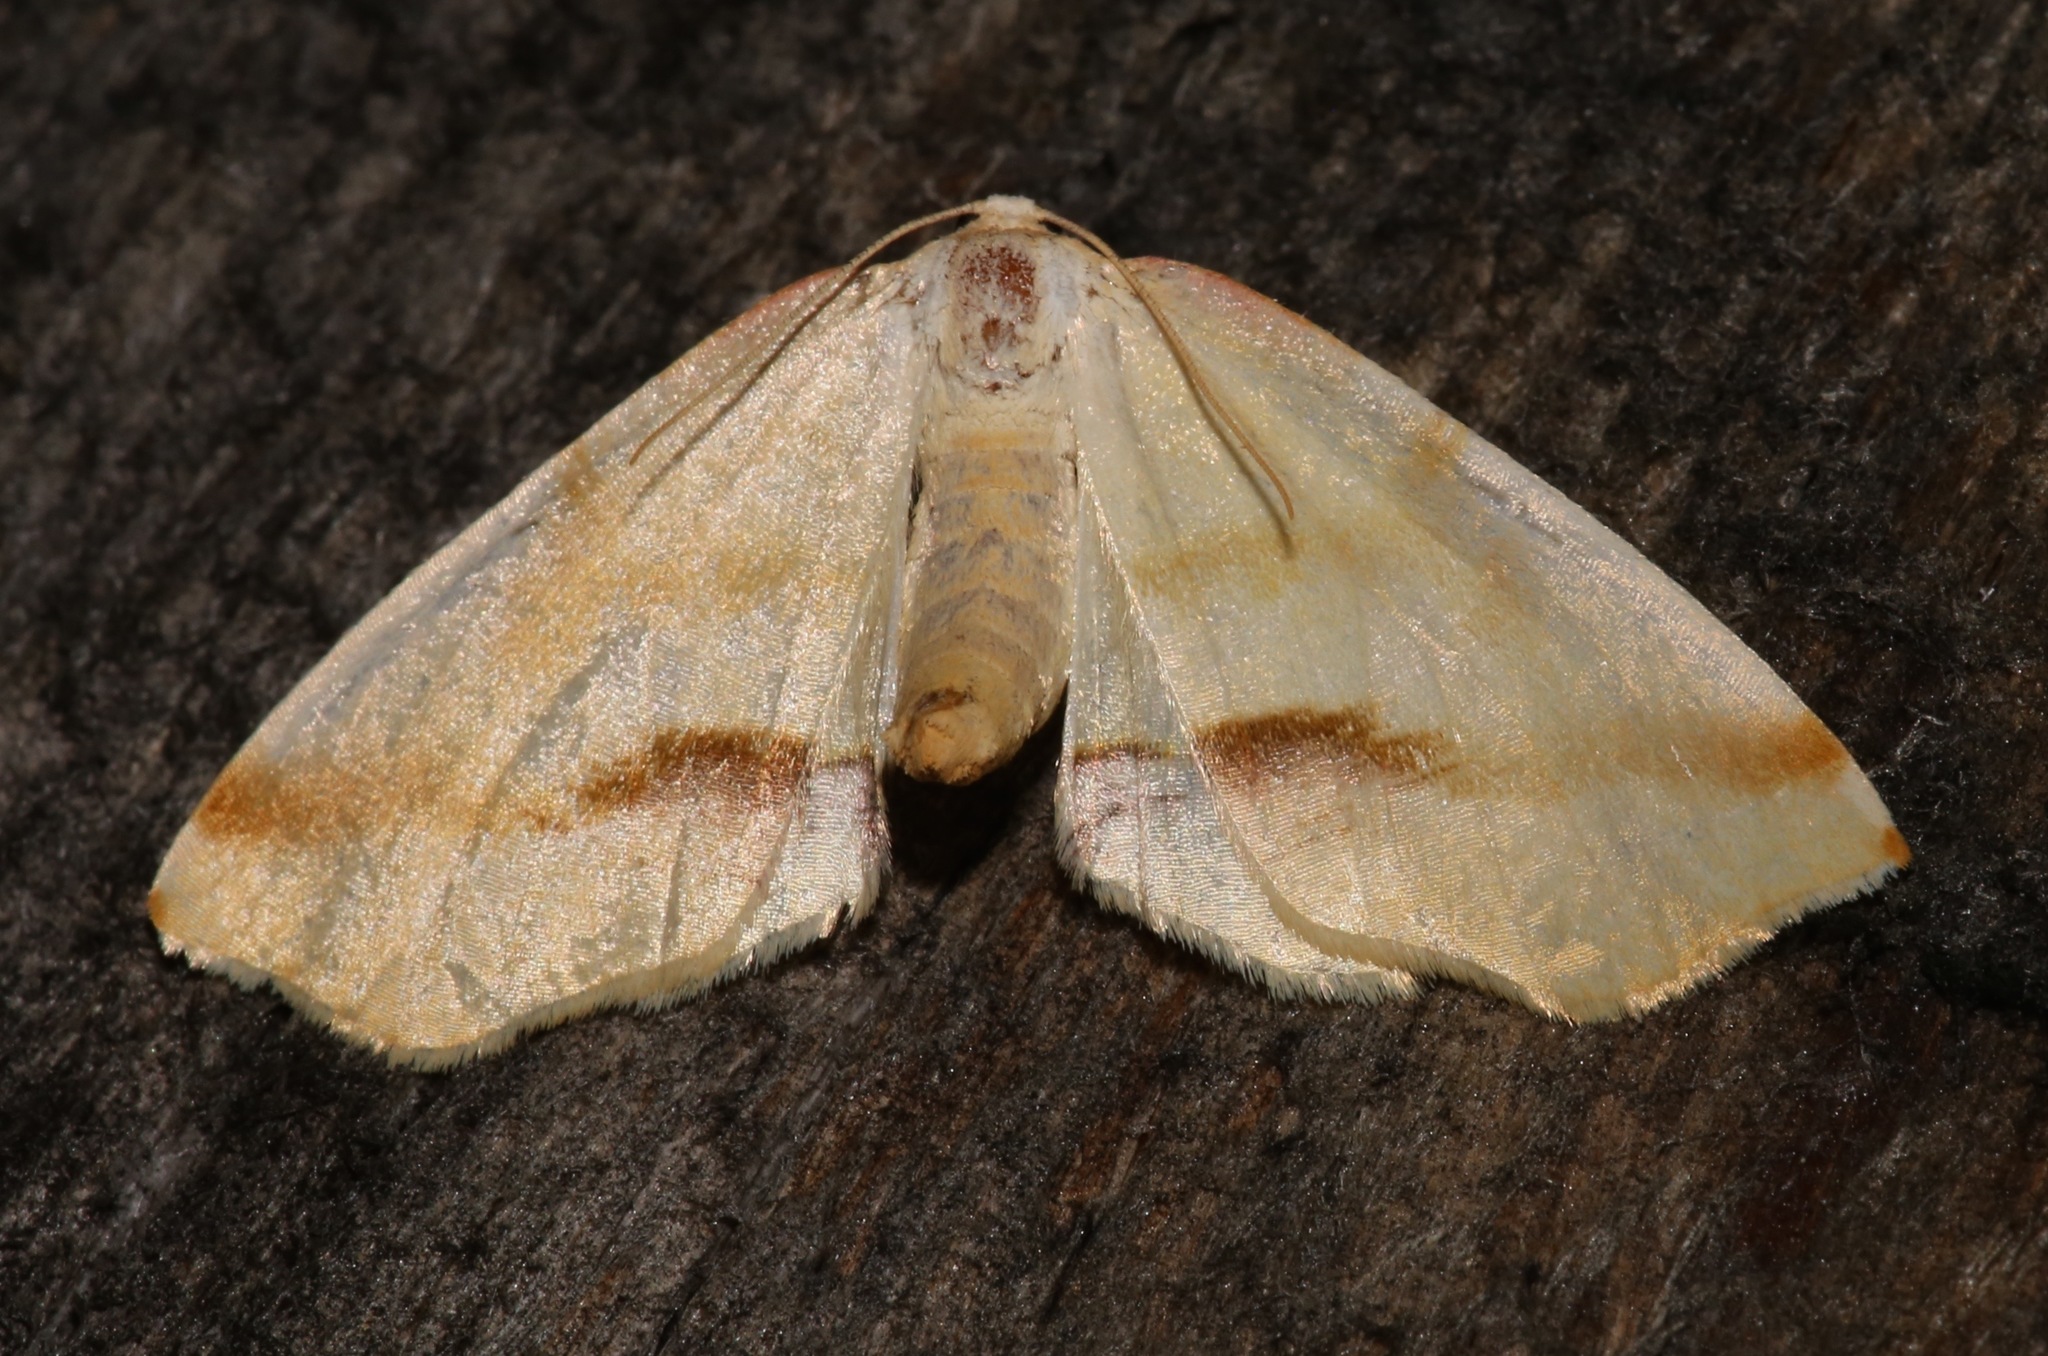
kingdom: Animalia
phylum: Arthropoda
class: Insecta
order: Lepidoptera
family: Geometridae
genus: Plagodis
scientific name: Plagodis serinaria
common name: Lemon plagodis
